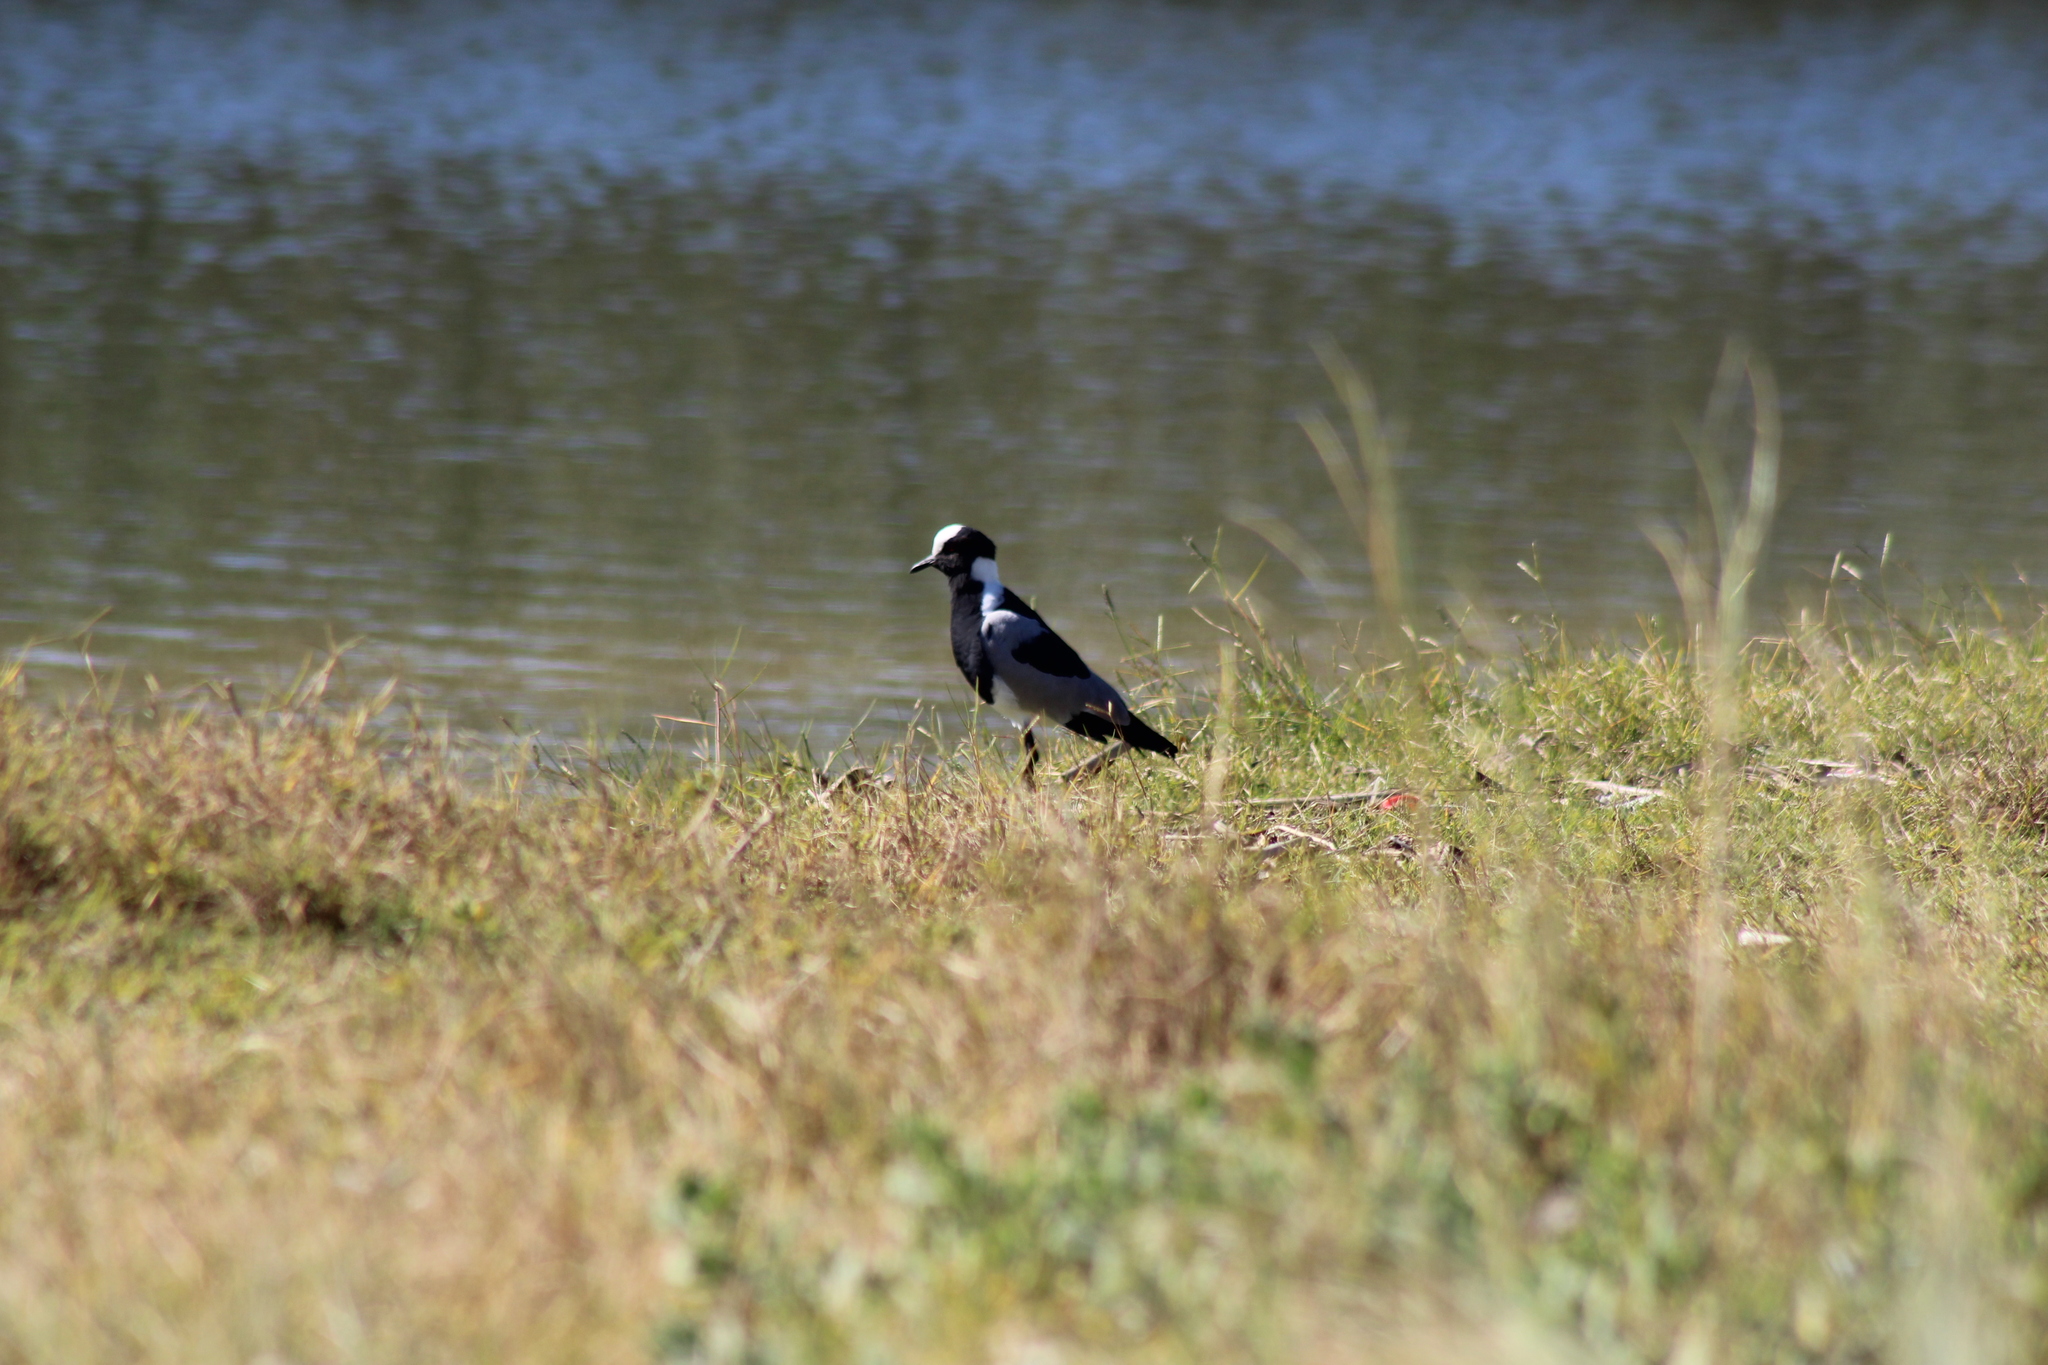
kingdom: Animalia
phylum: Chordata
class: Aves
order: Charadriiformes
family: Charadriidae
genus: Vanellus
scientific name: Vanellus armatus
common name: Blacksmith lapwing
